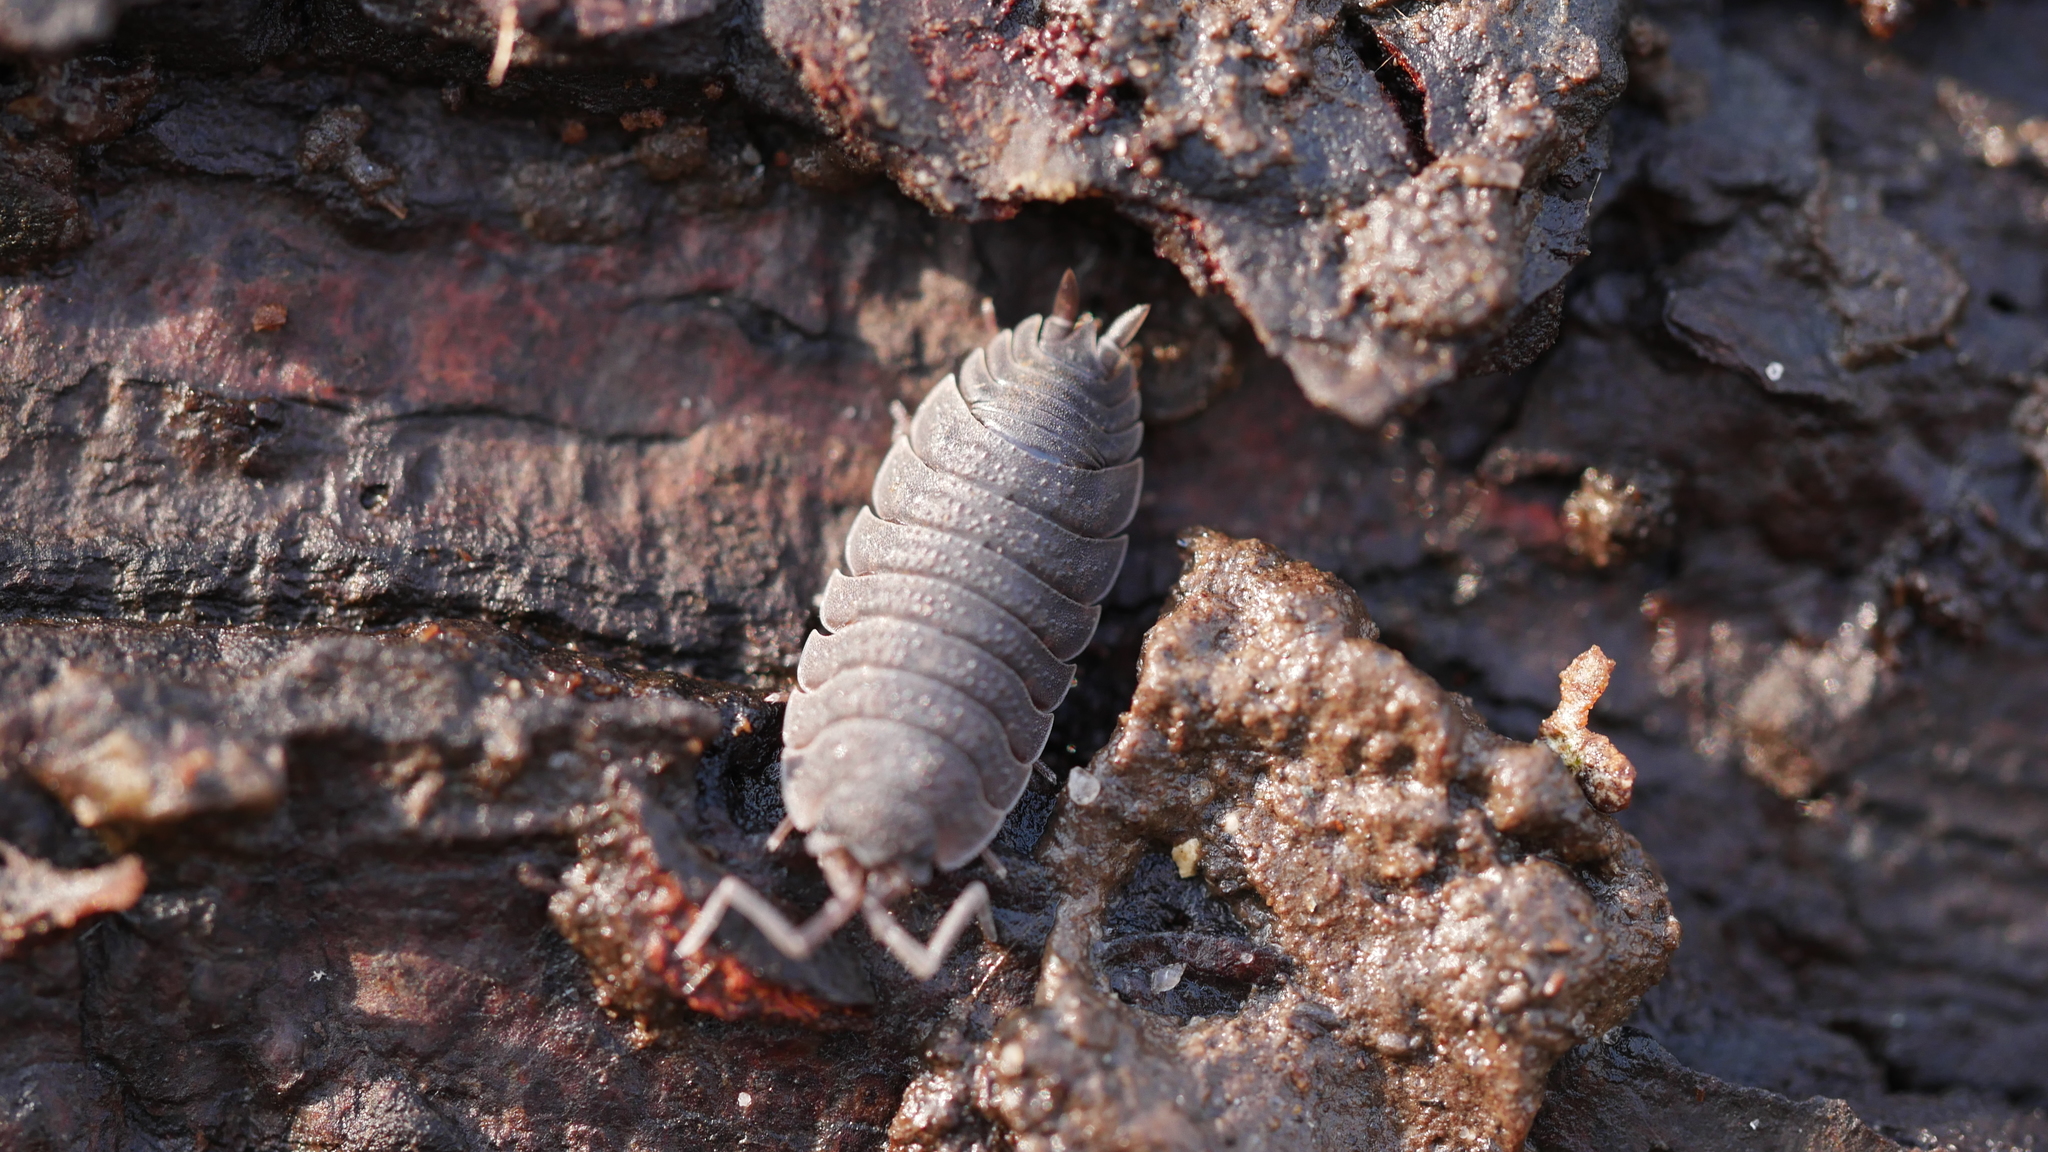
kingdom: Animalia
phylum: Arthropoda
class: Malacostraca
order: Isopoda
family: Porcellionidae
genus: Porcellio
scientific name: Porcellio scaber
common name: Common rough woodlouse
